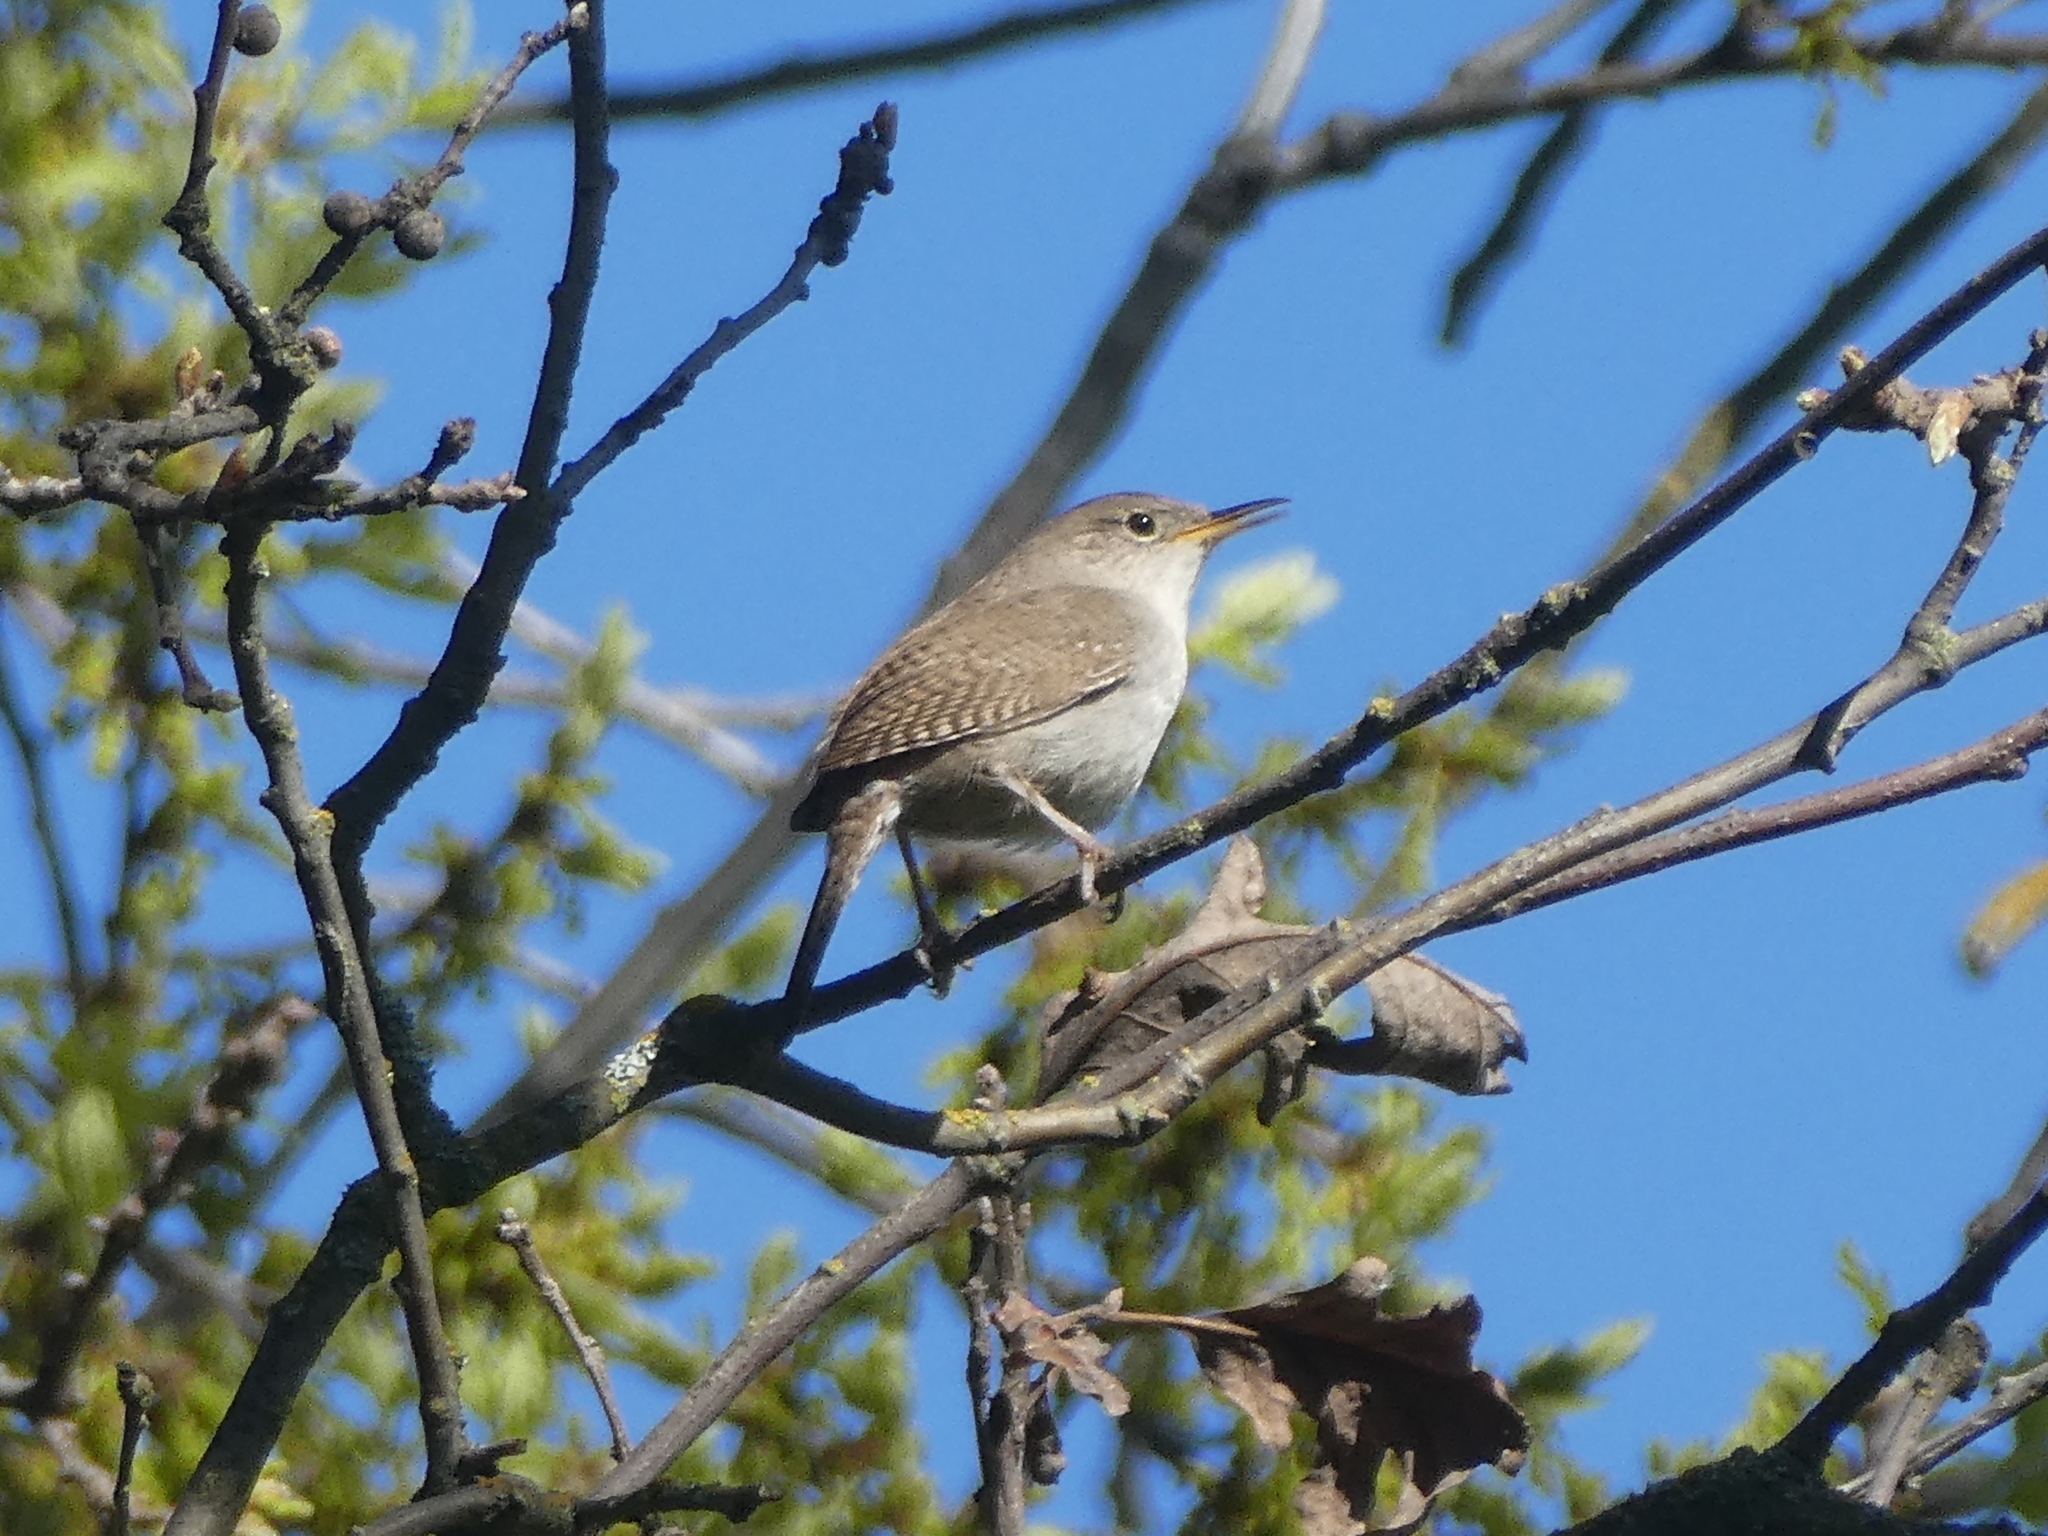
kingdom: Animalia
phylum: Chordata
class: Aves
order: Passeriformes
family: Troglodytidae
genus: Troglodytes
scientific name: Troglodytes aedon
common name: House wren
